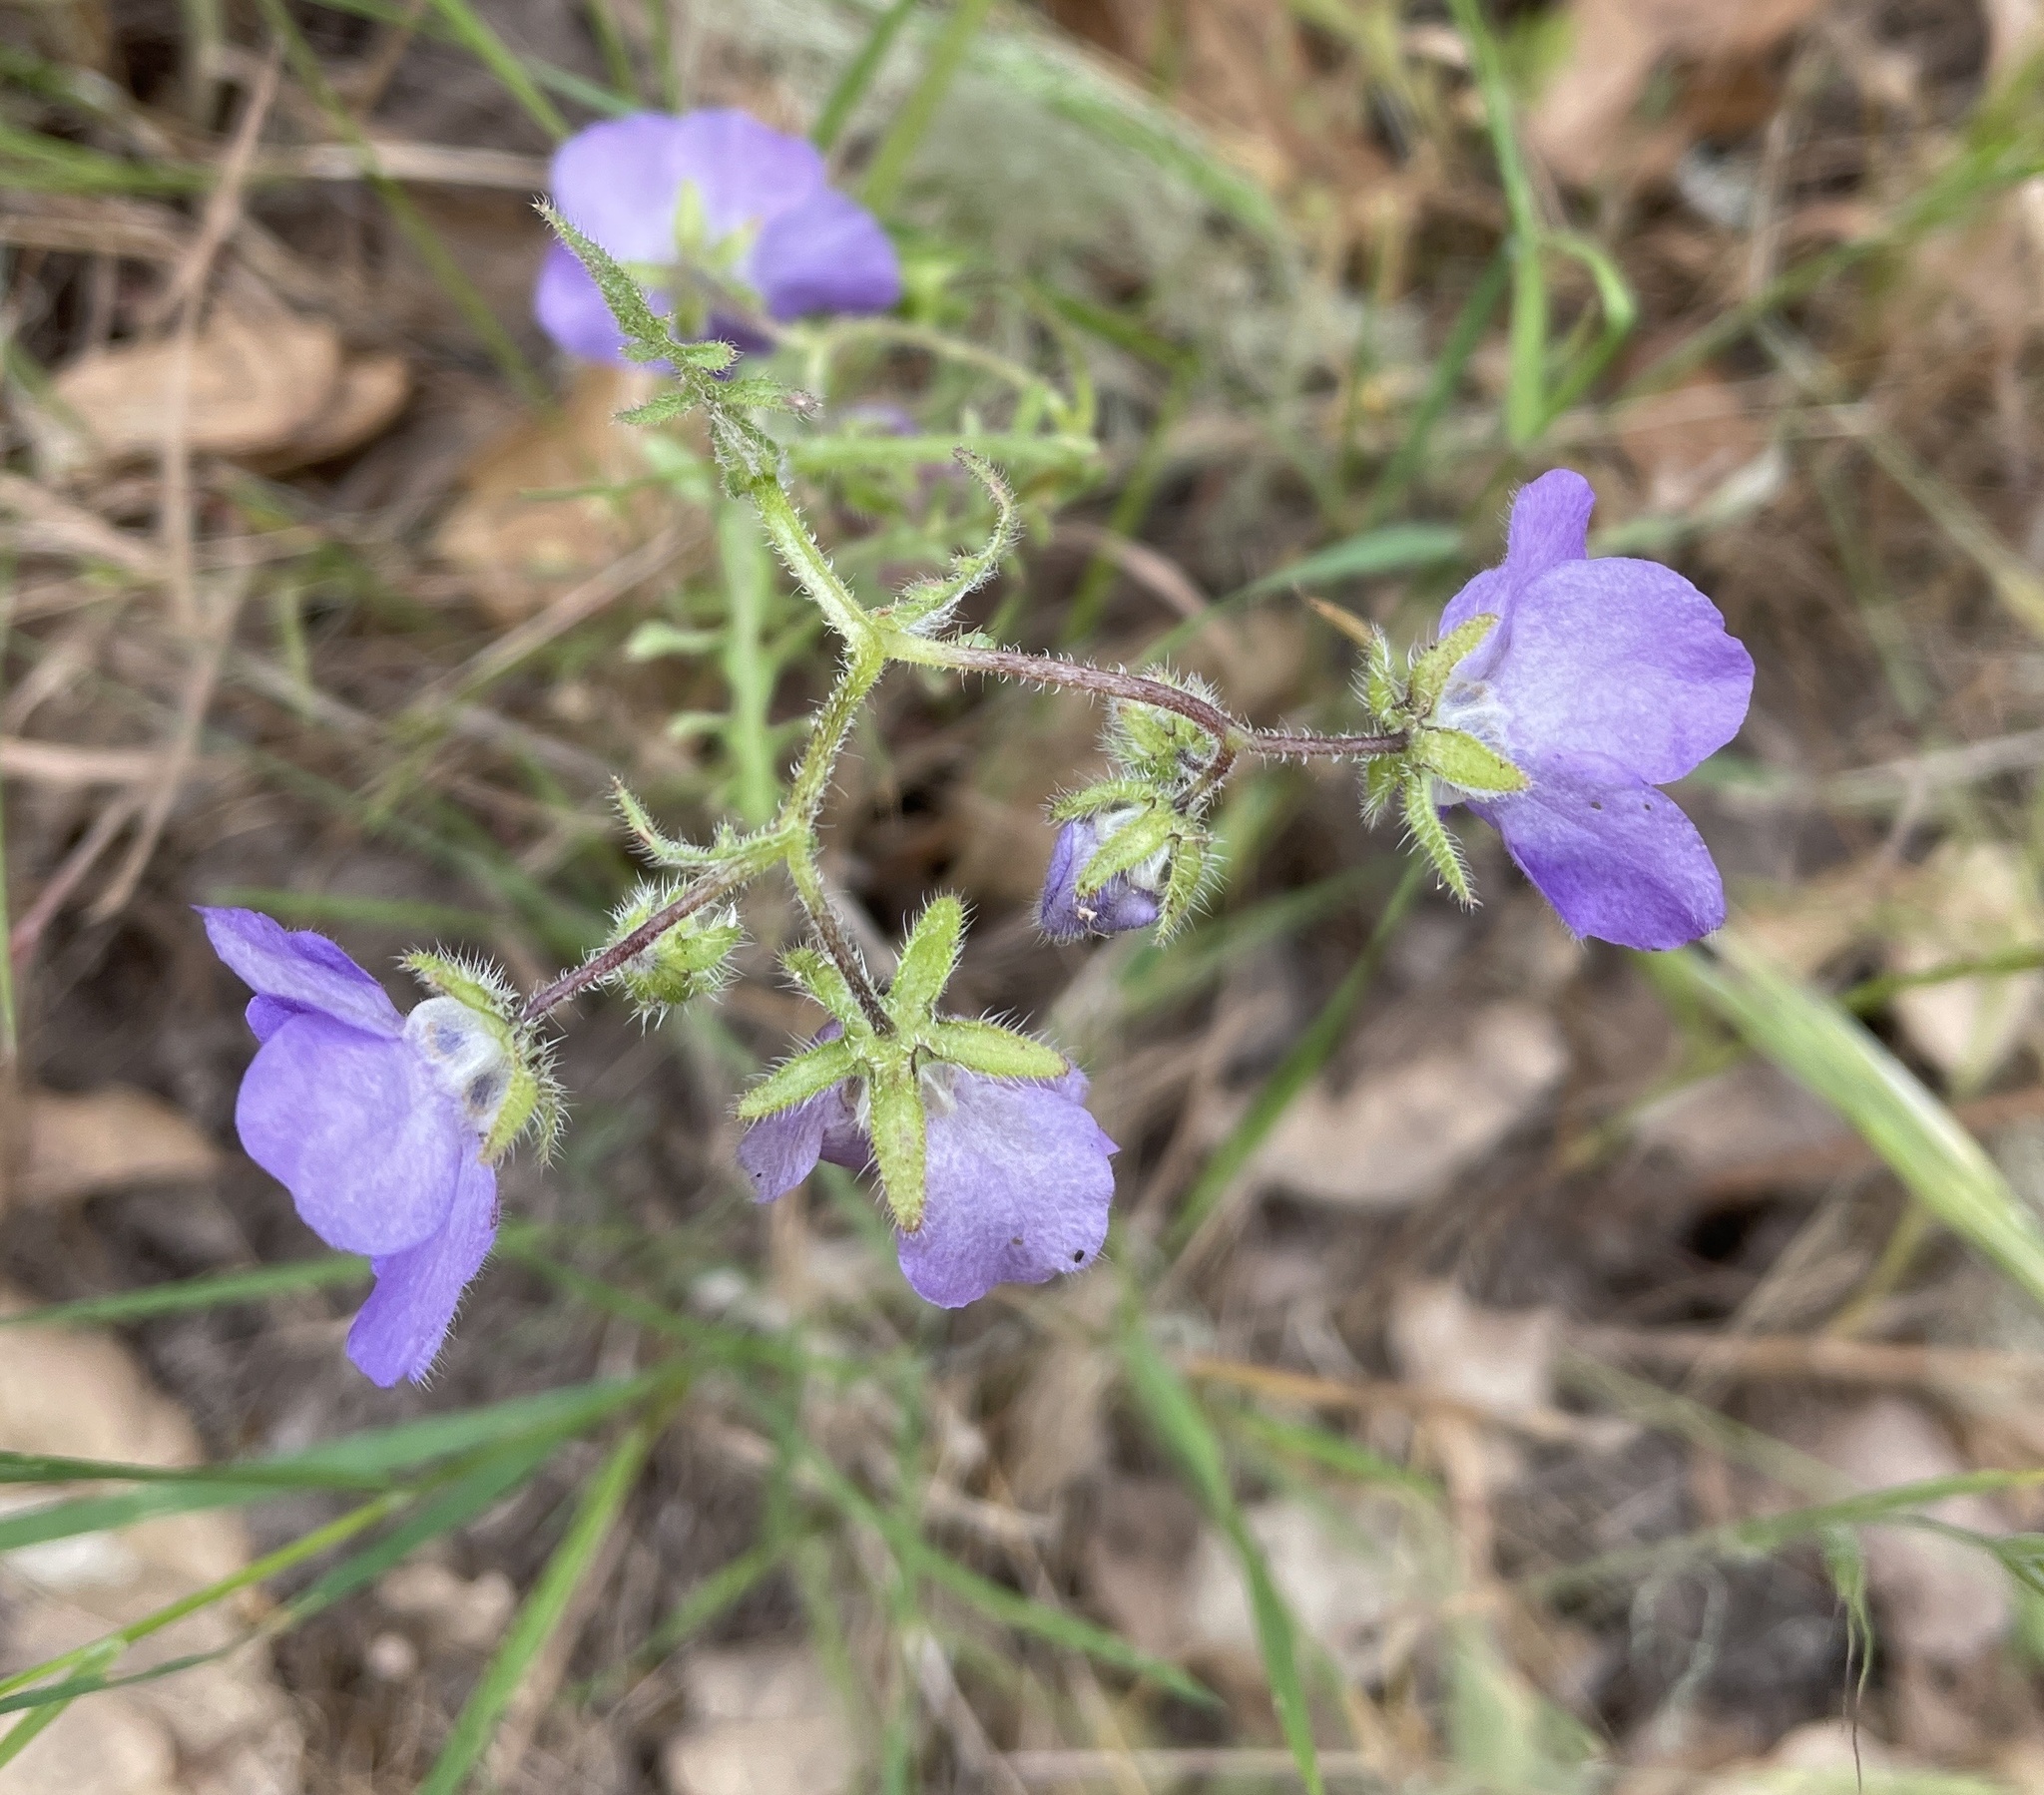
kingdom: Plantae
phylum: Tracheophyta
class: Magnoliopsida
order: Boraginales
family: Hydrophyllaceae
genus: Pholistoma
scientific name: Pholistoma auritum
